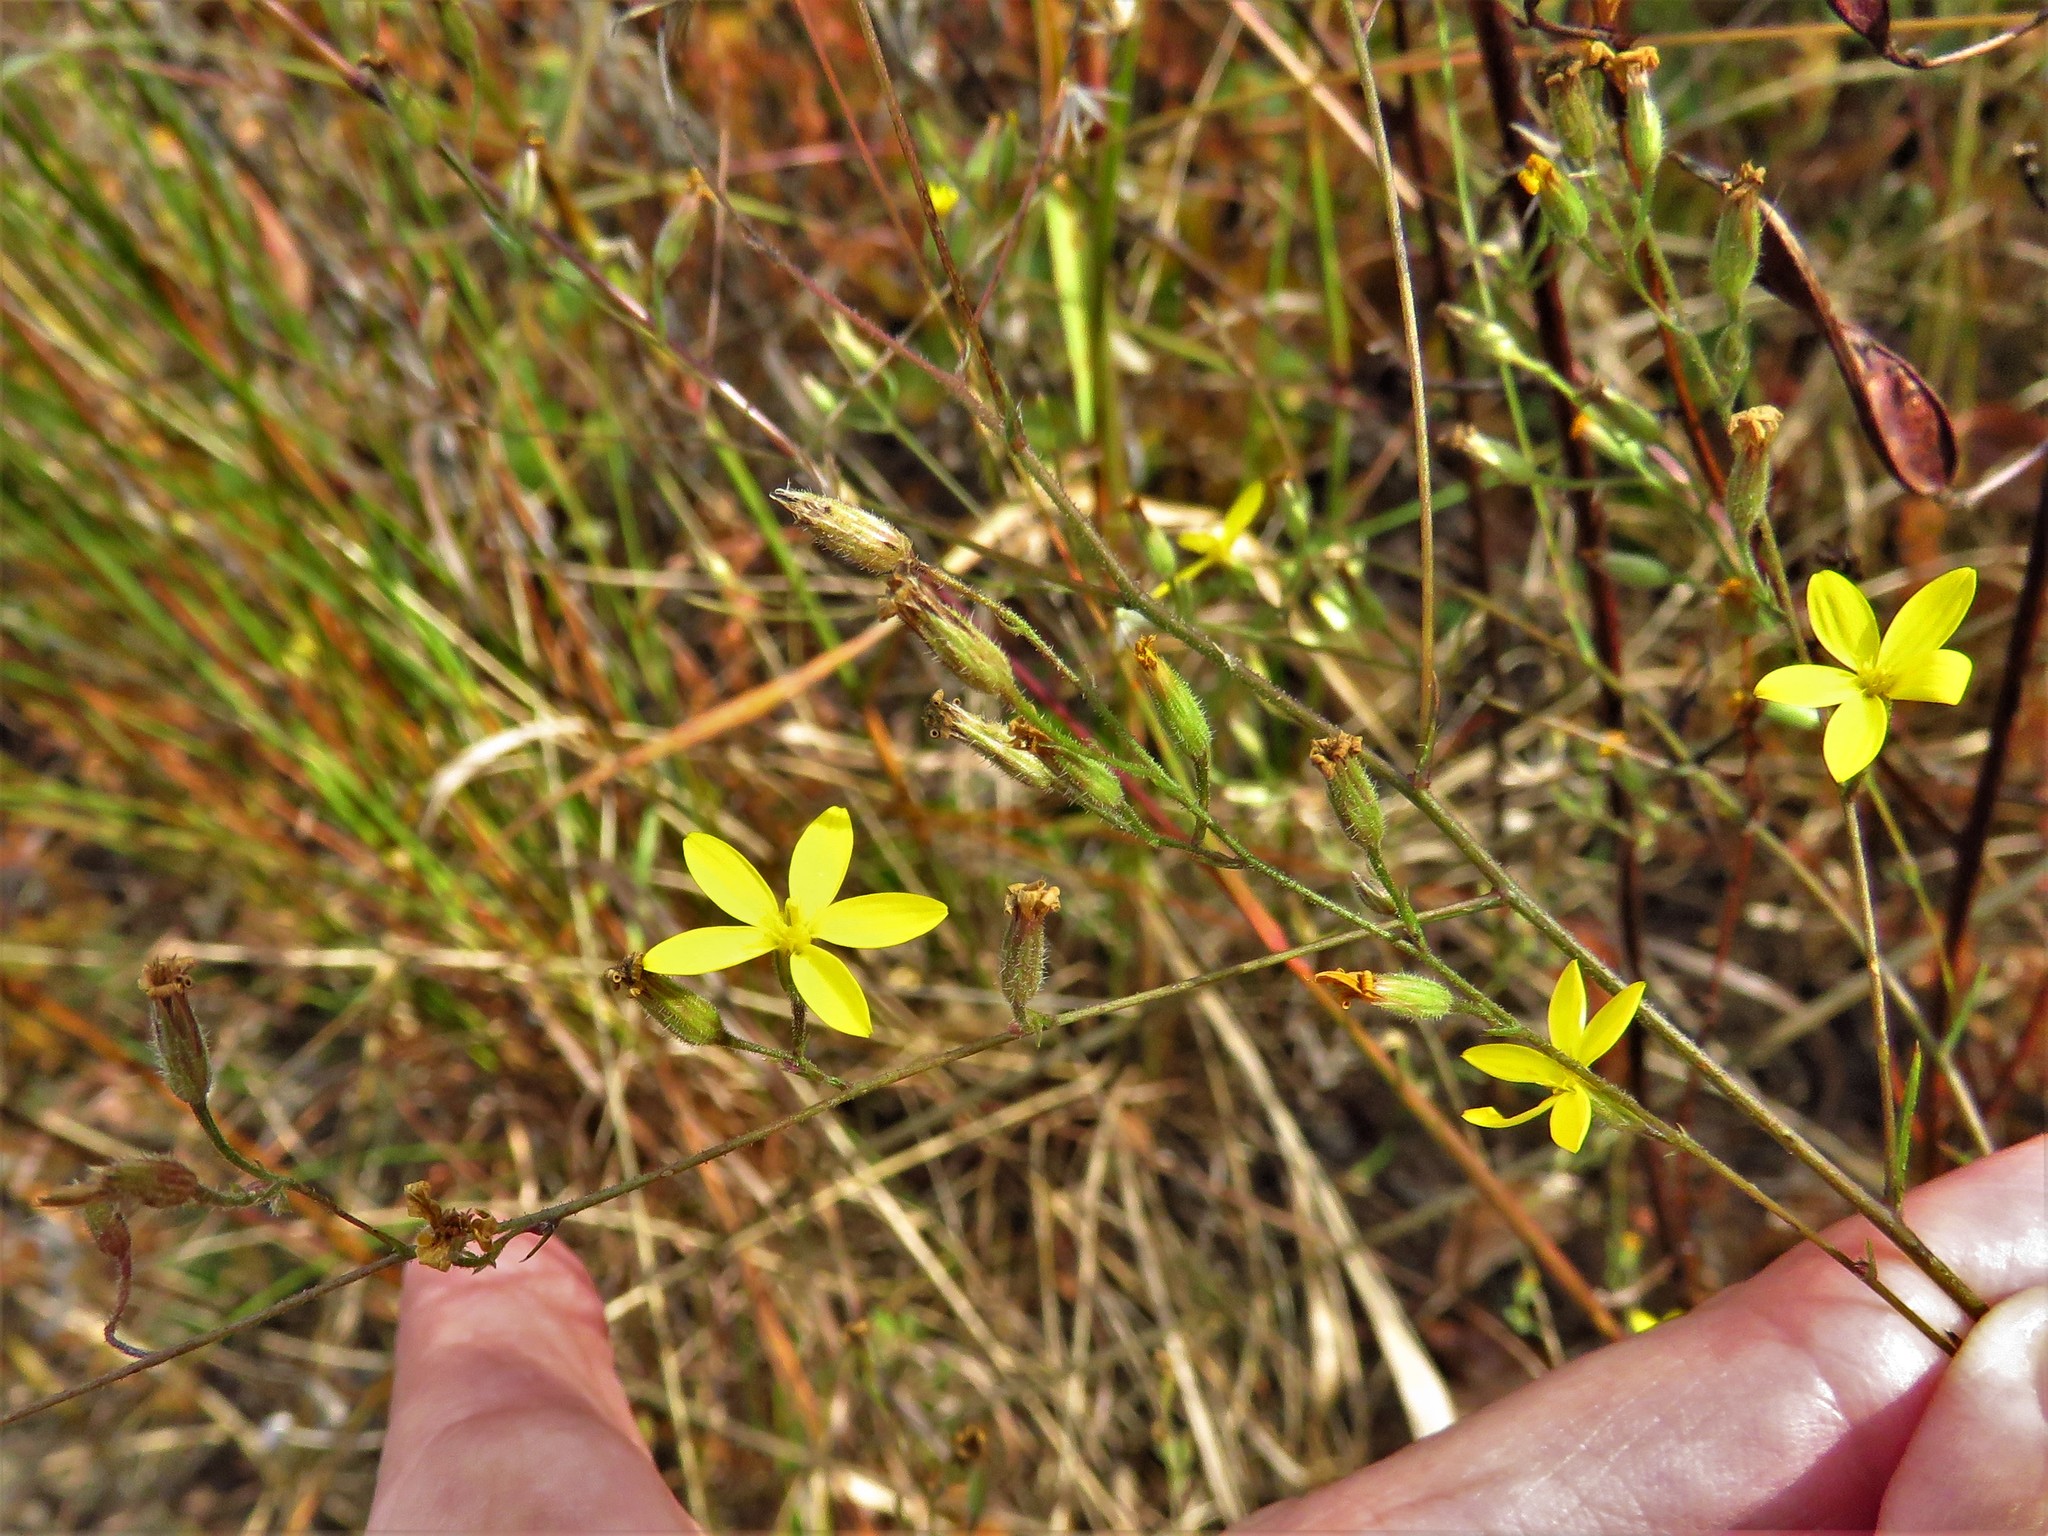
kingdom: Plantae
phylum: Tracheophyta
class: Magnoliopsida
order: Asterales
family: Asteraceae
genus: Croptilon
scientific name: Croptilon divaricatum
